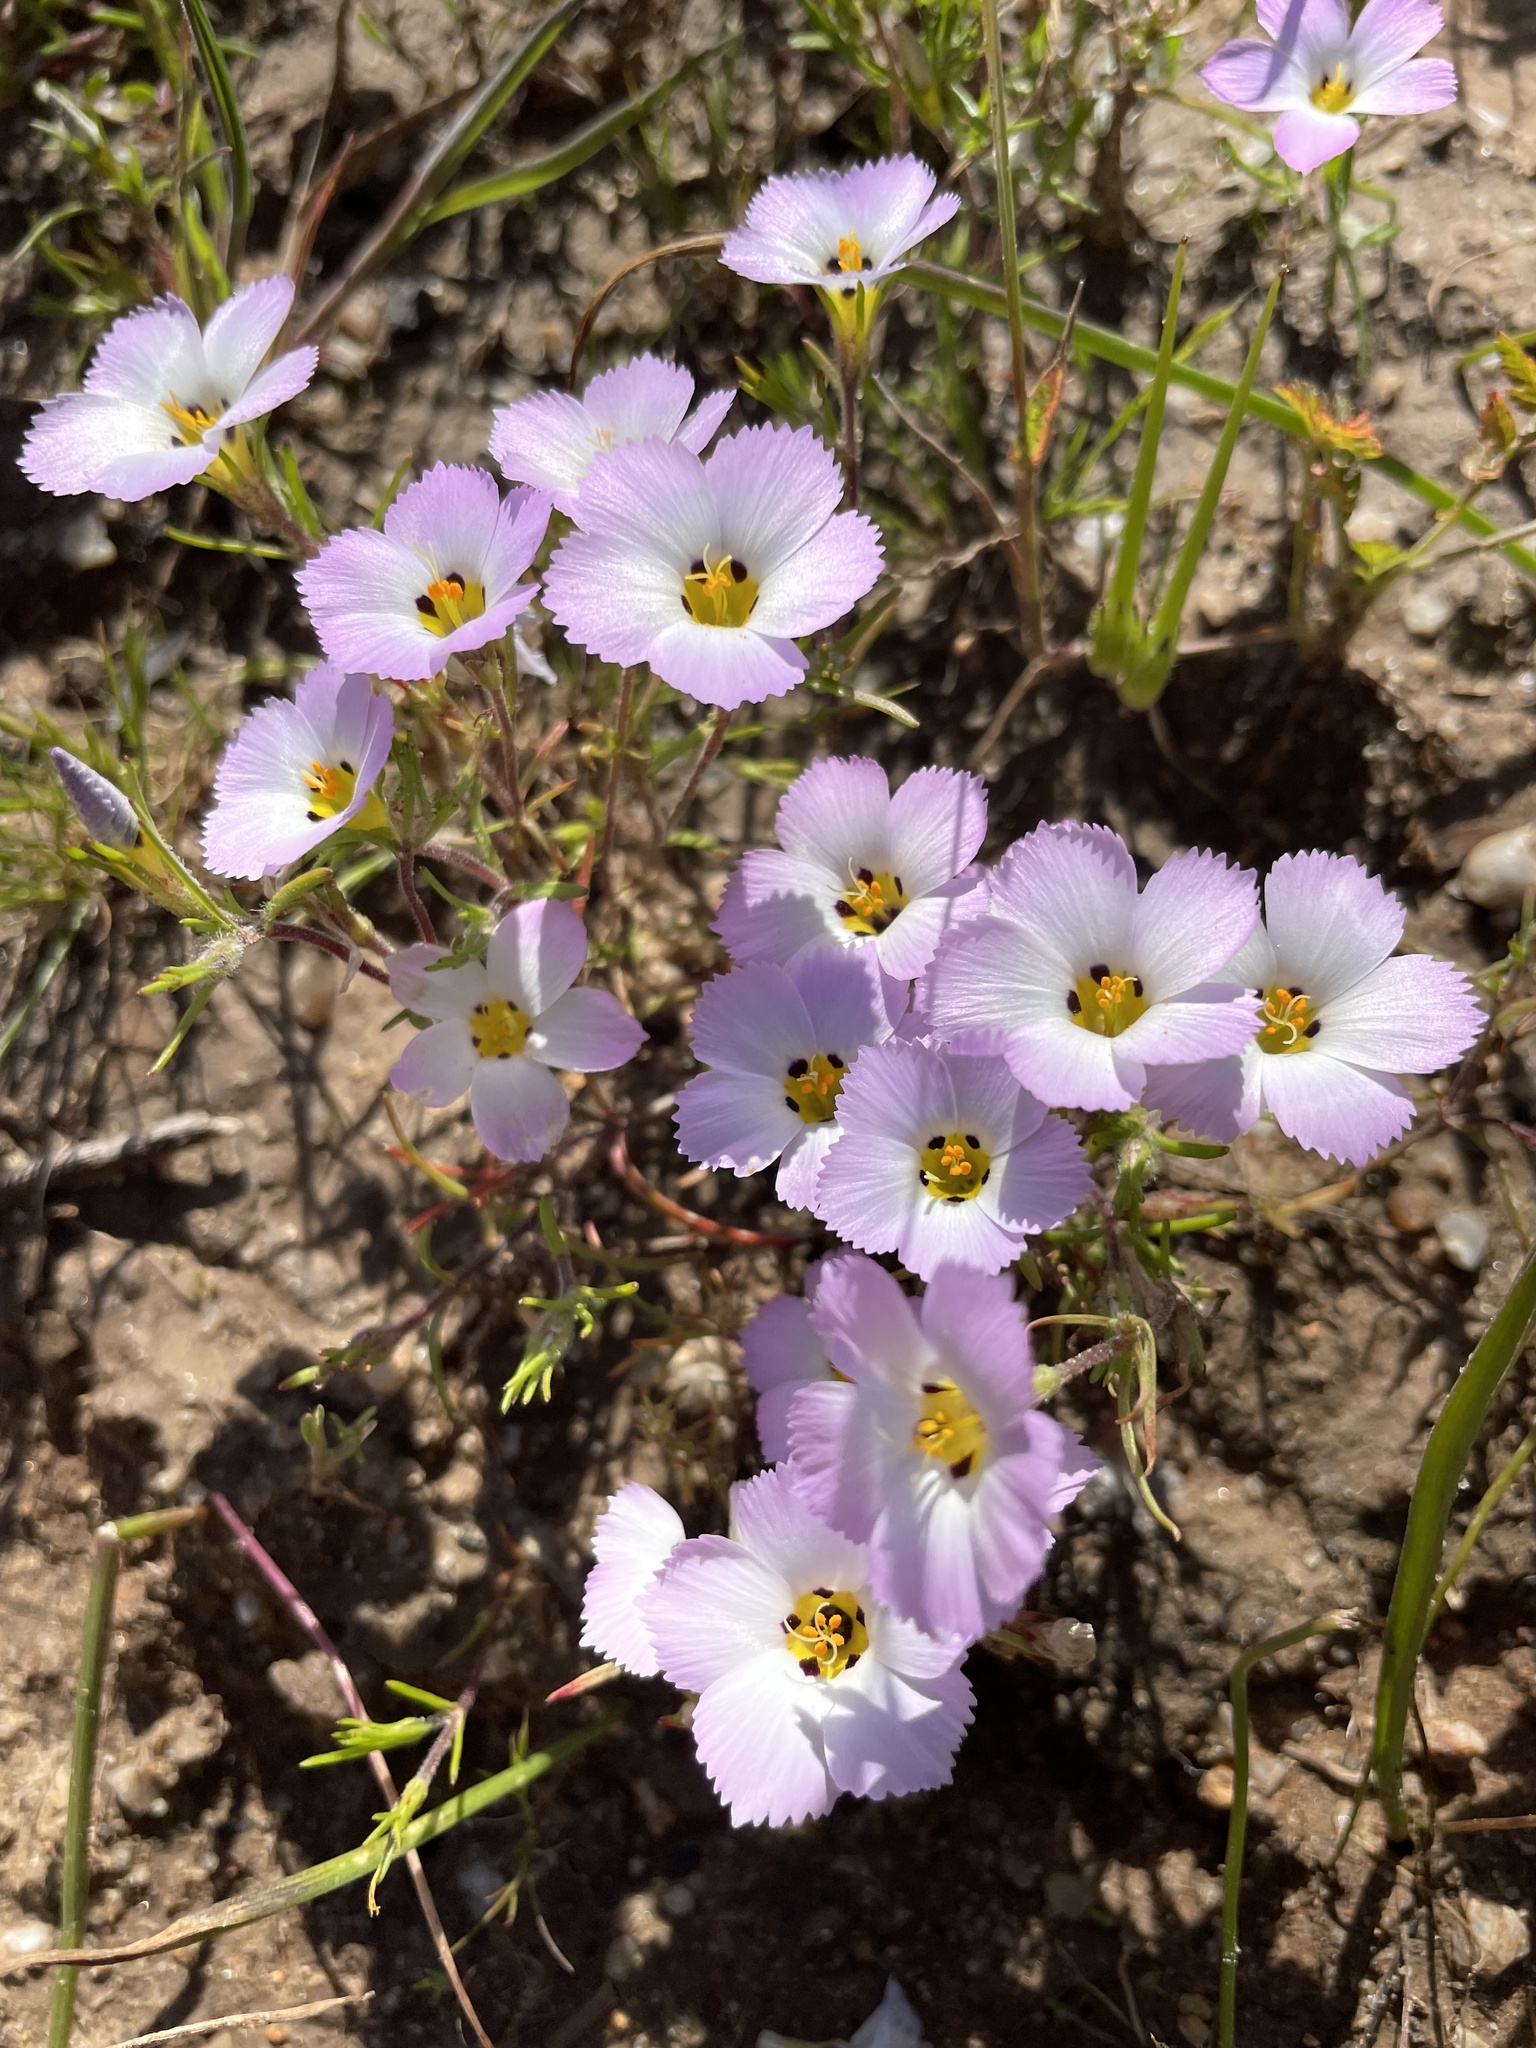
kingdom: Plantae
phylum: Tracheophyta
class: Magnoliopsida
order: Ericales
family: Polemoniaceae
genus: Linanthus
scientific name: Linanthus dianthiflorus
